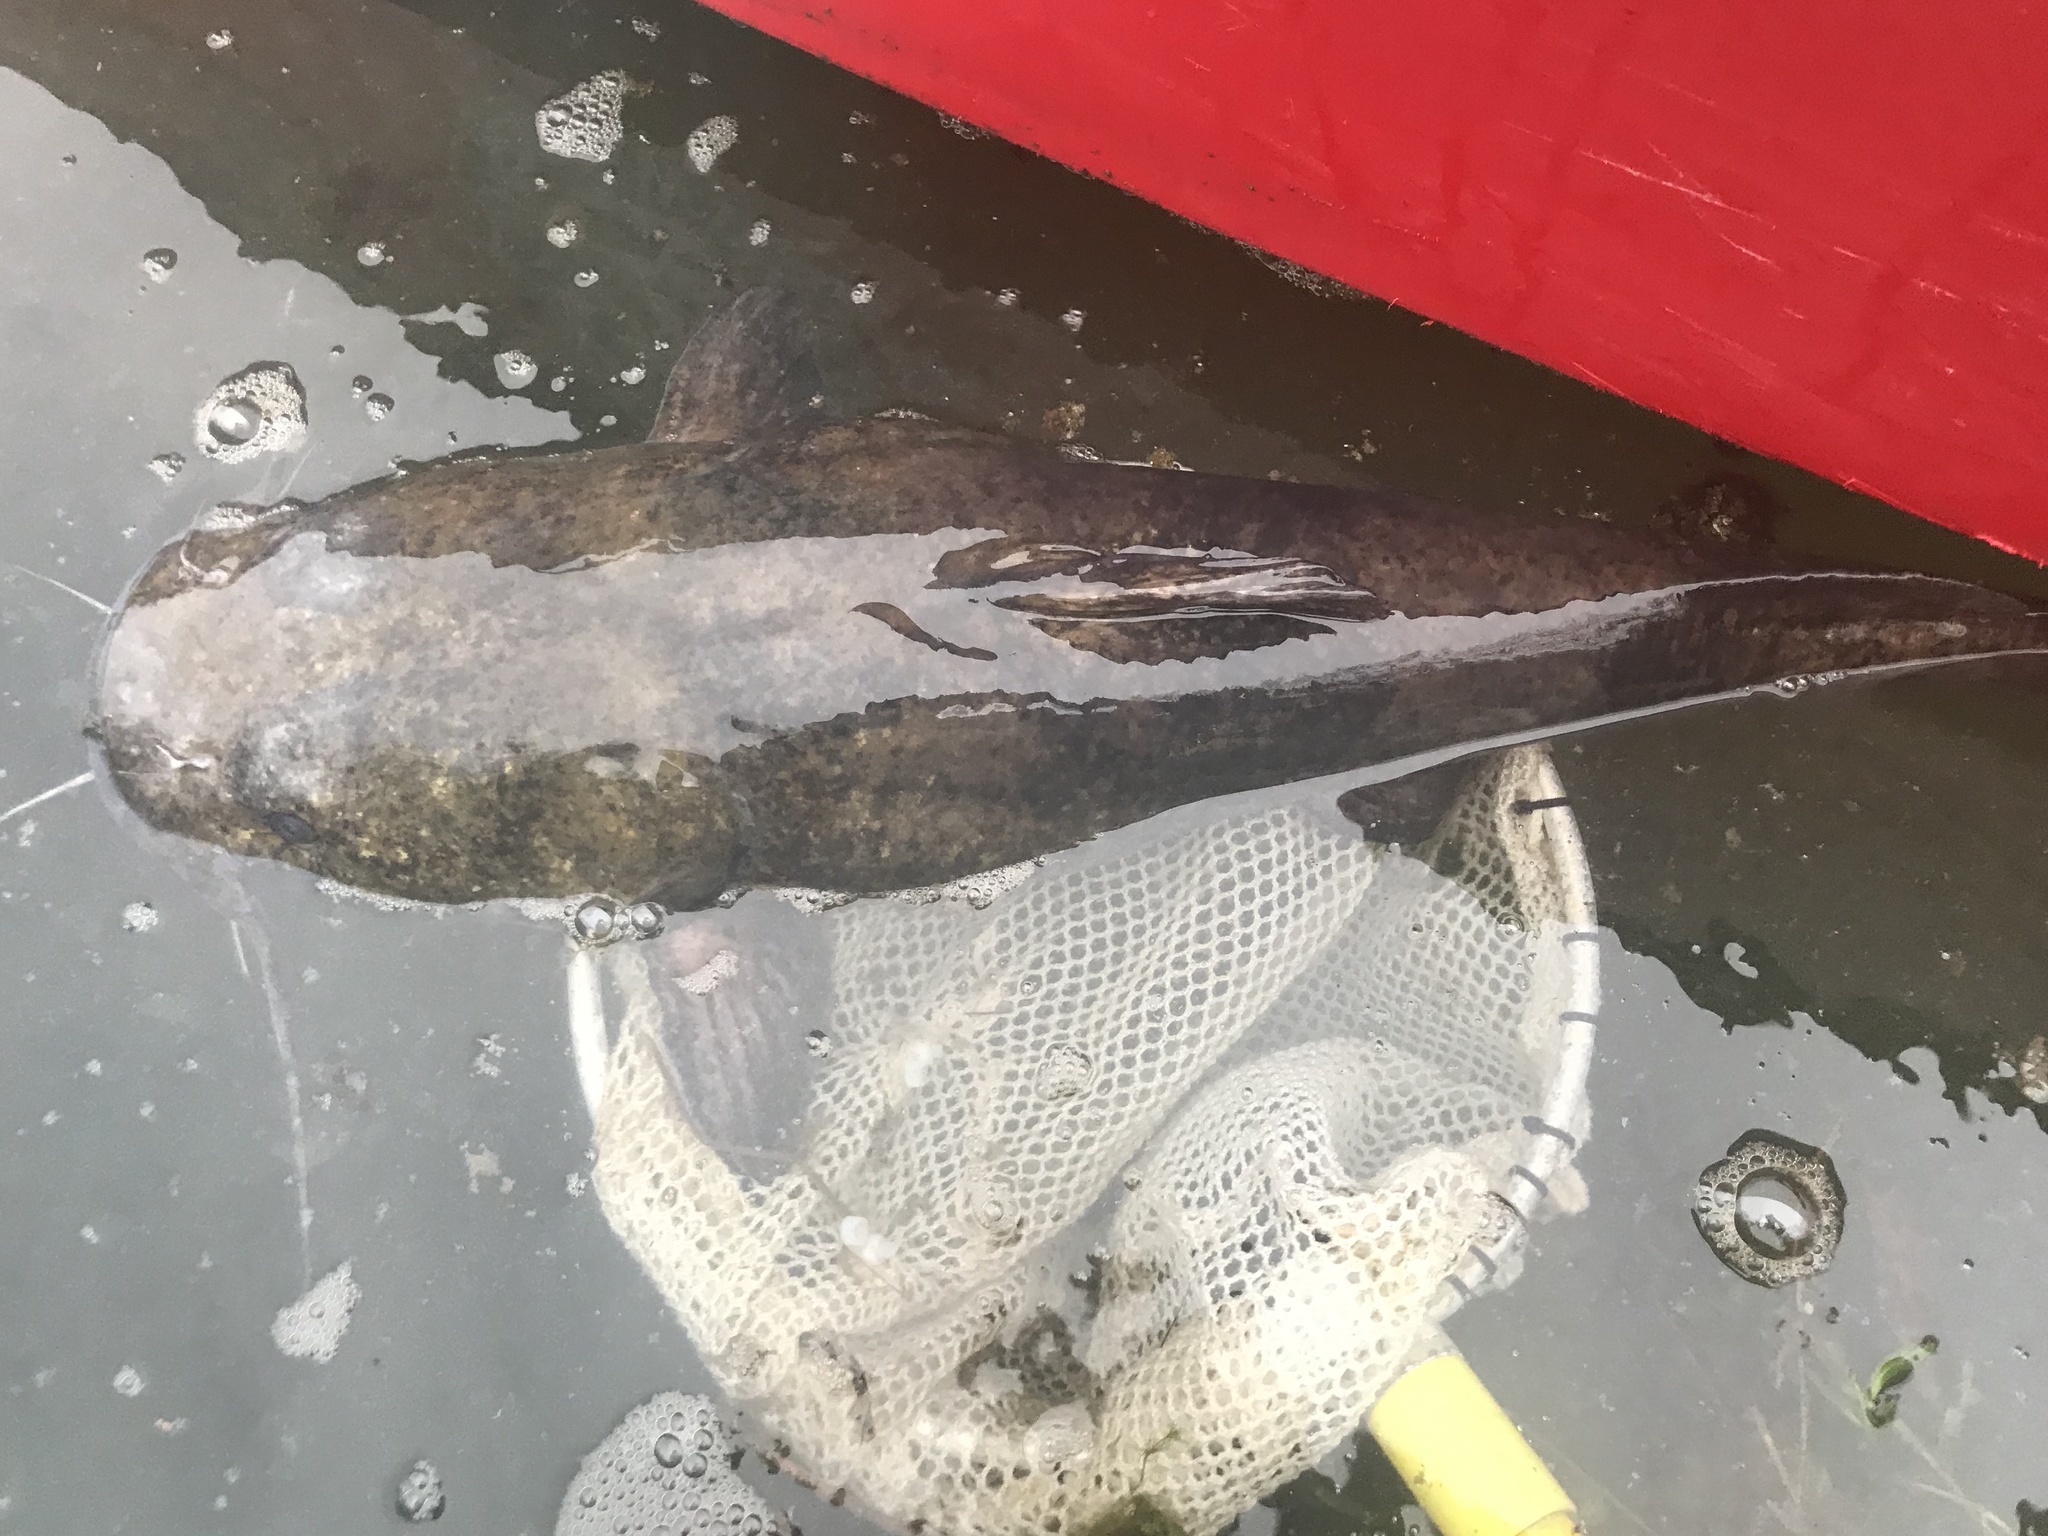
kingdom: Animalia
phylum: Chordata
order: Siluriformes
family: Ictaluridae
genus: Pylodictis
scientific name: Pylodictis olivaris
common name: Flathead catfish
